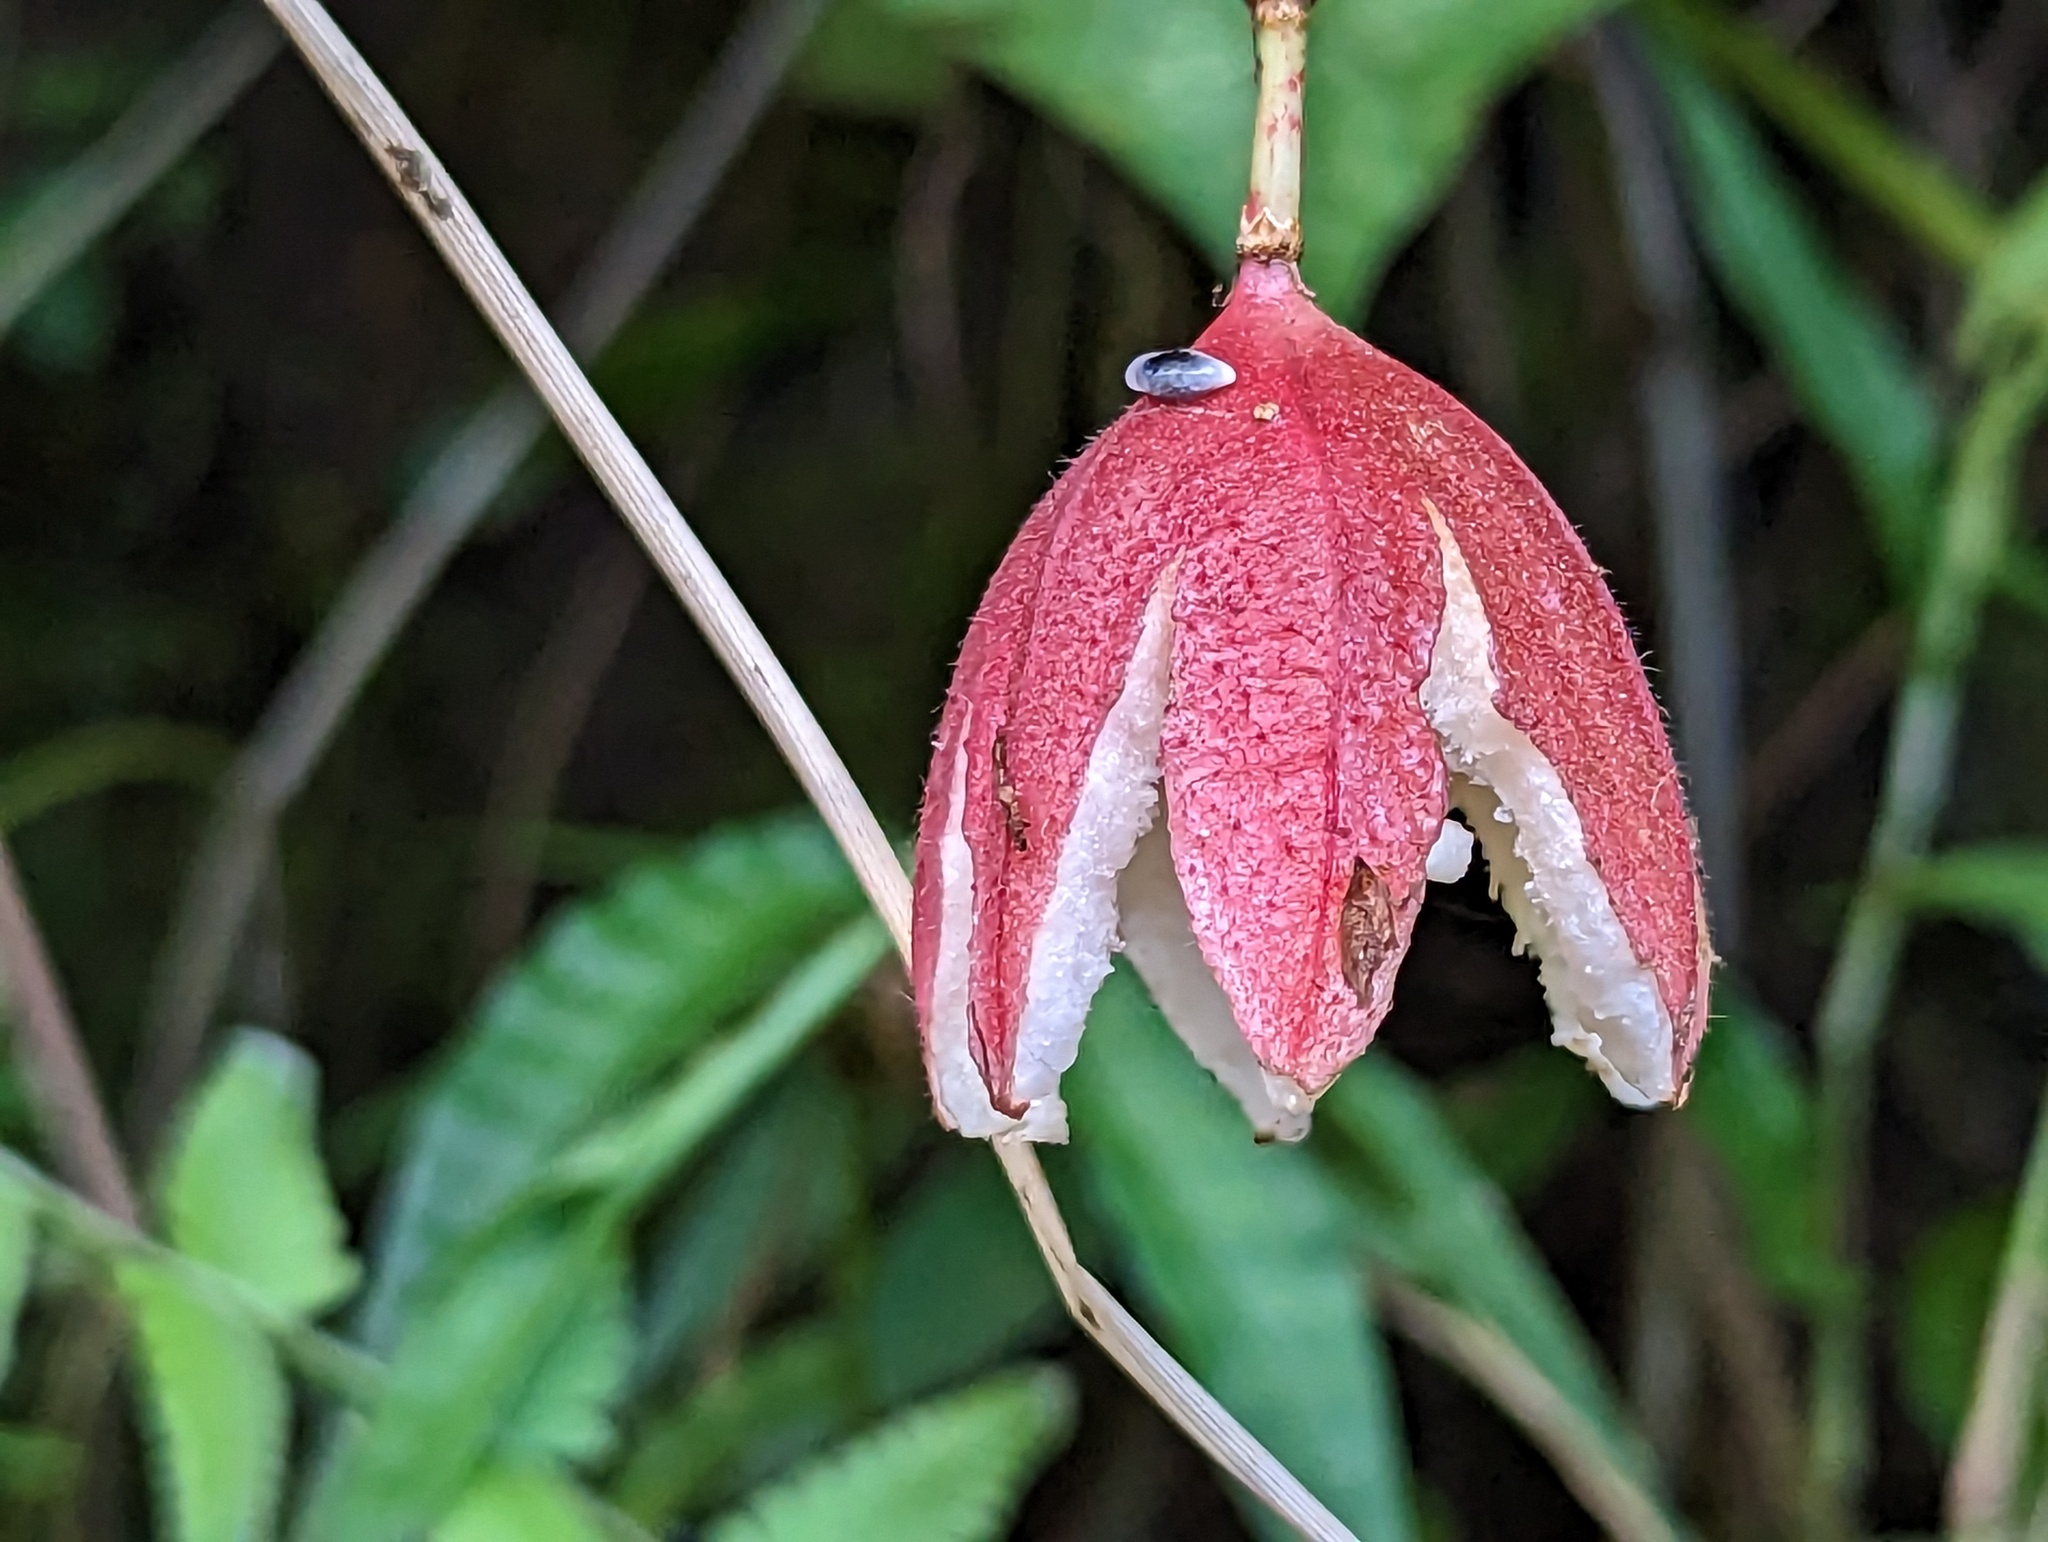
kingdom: Plantae
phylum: Tracheophyta
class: Magnoliopsida
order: Malpighiales
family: Passifloraceae
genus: Passiflora
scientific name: Passiflora rubra
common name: Snakeberry vine
